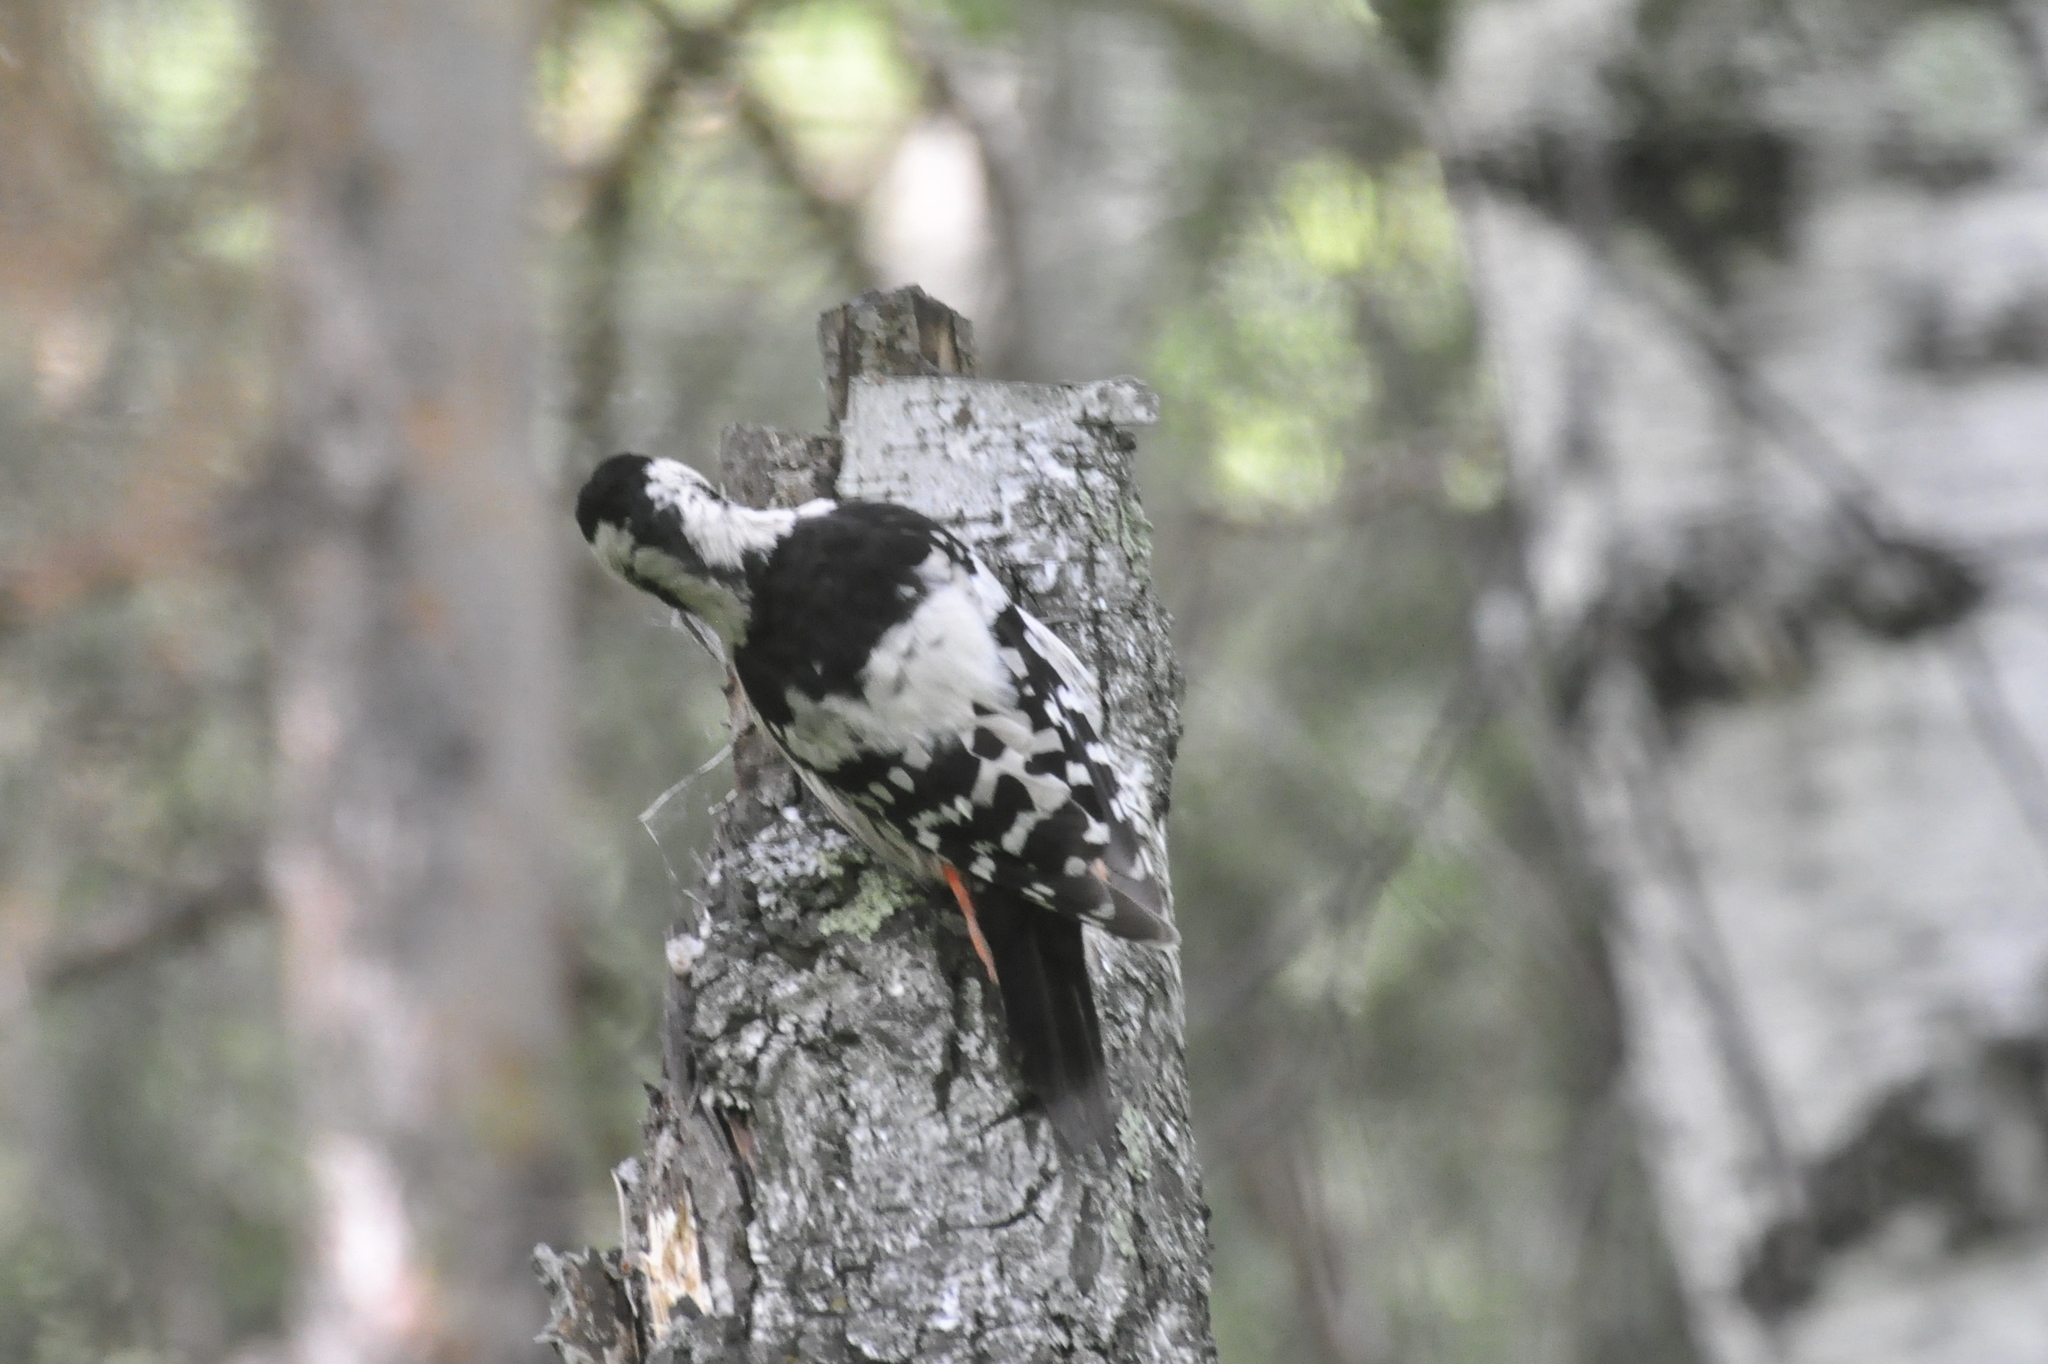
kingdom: Animalia
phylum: Chordata
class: Aves
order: Piciformes
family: Picidae
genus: Dendrocopos
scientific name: Dendrocopos leucotos
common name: White-backed woodpecker
